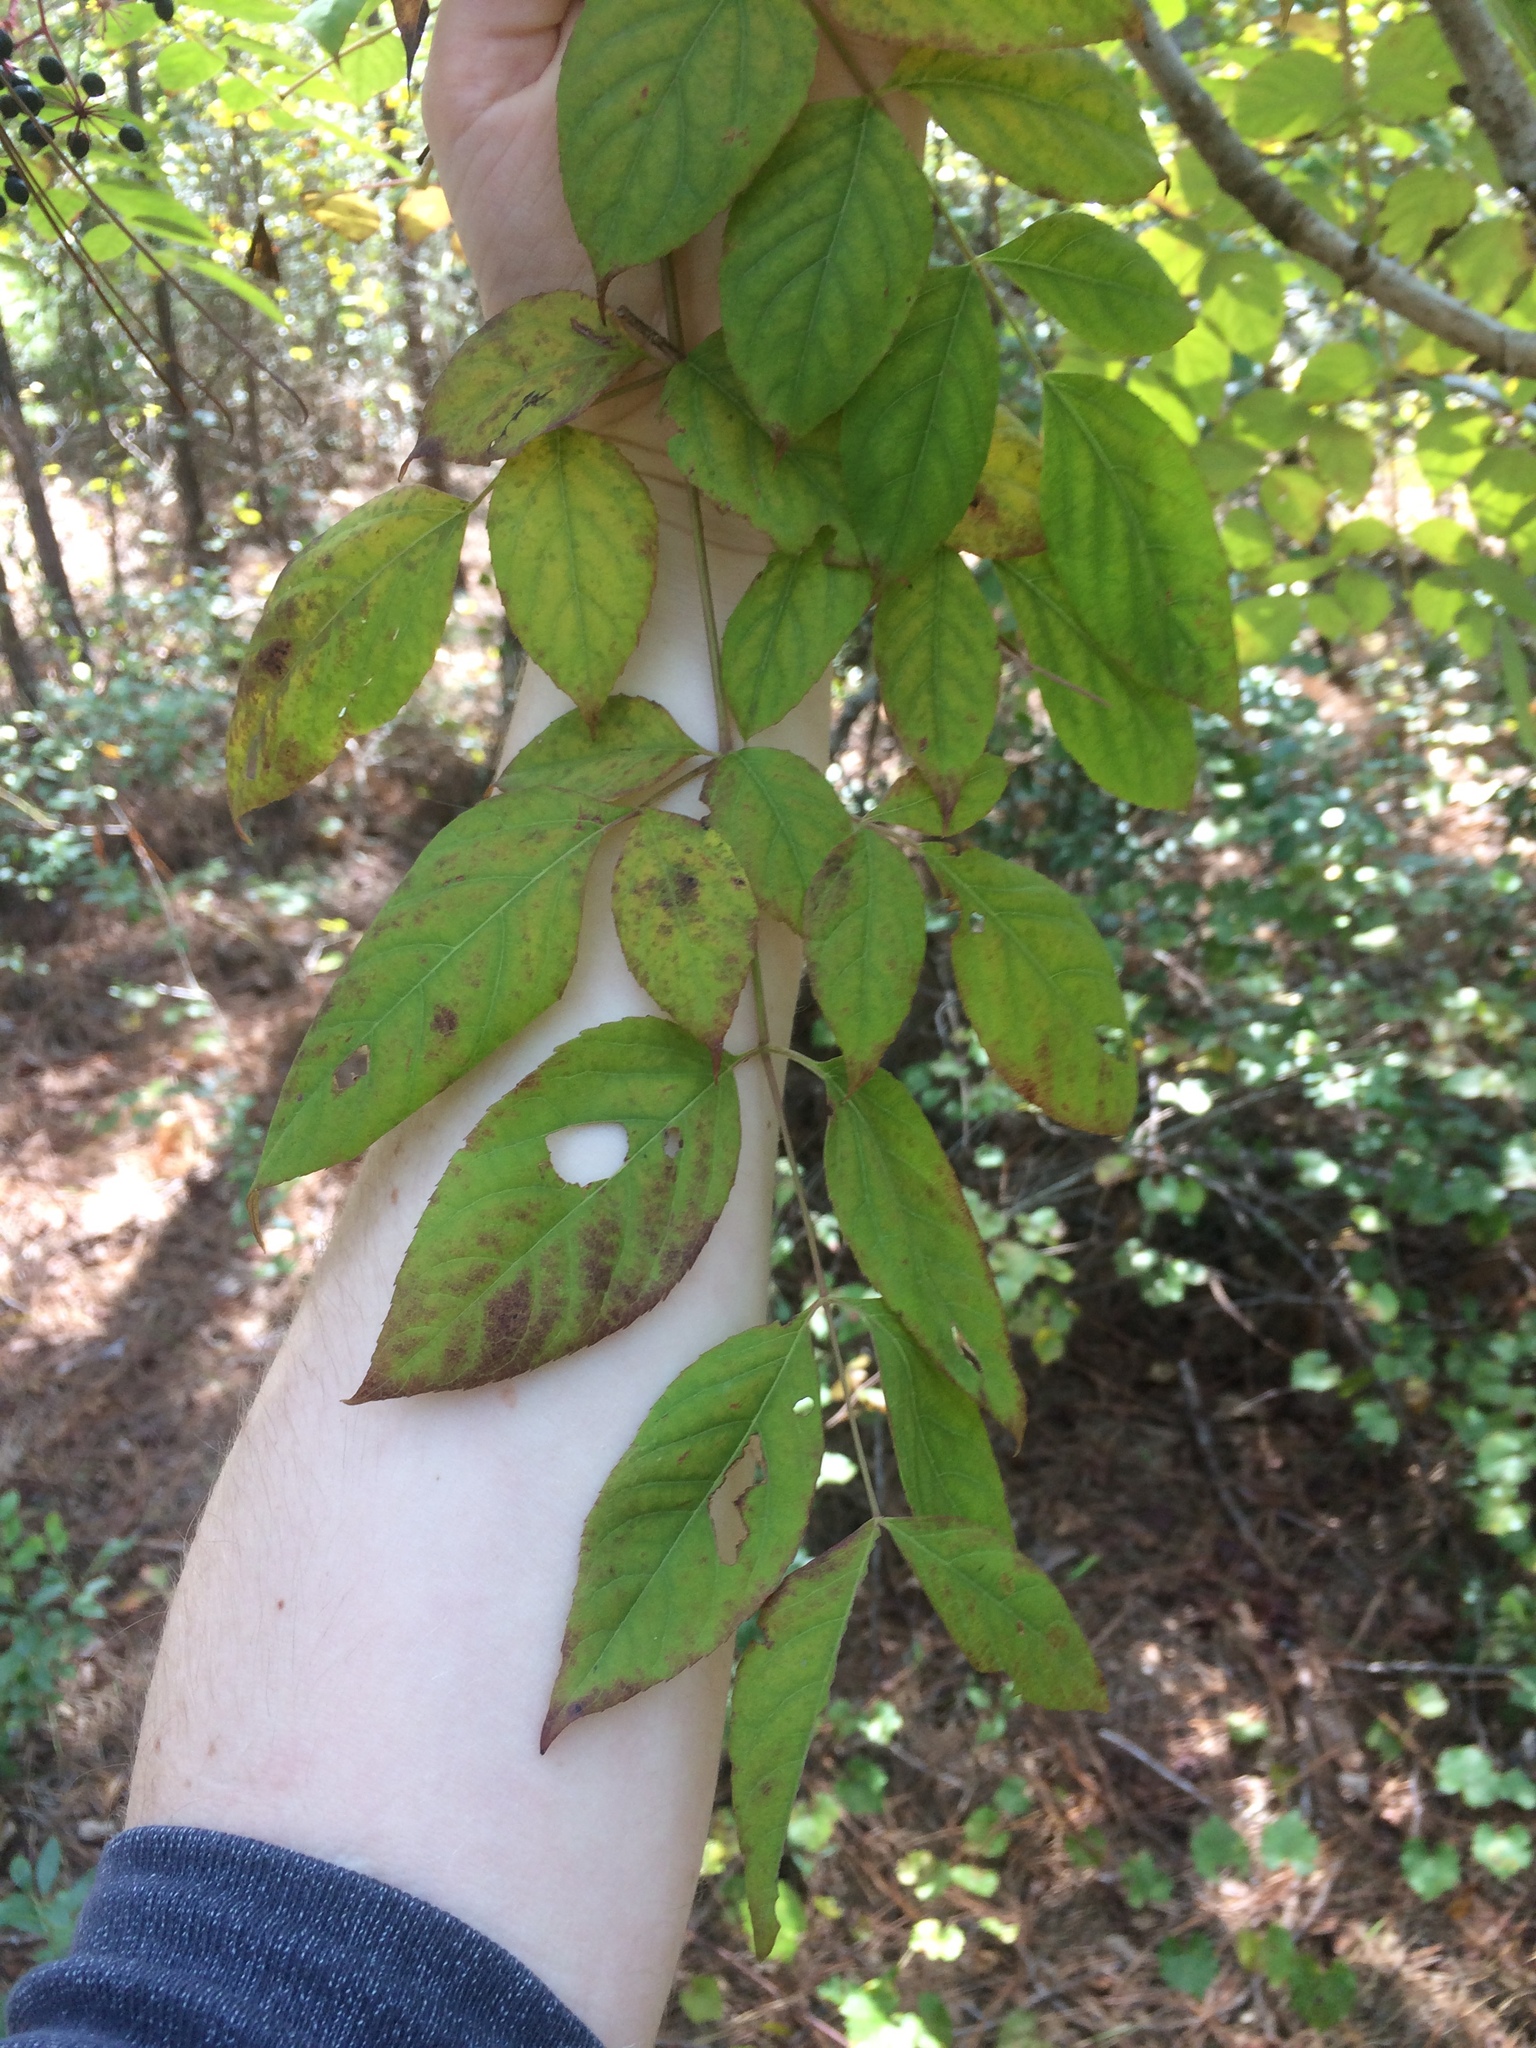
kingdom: Plantae
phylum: Tracheophyta
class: Magnoliopsida
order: Dipsacales
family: Viburnaceae
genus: Sambucus
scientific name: Sambucus canadensis
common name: American elder
